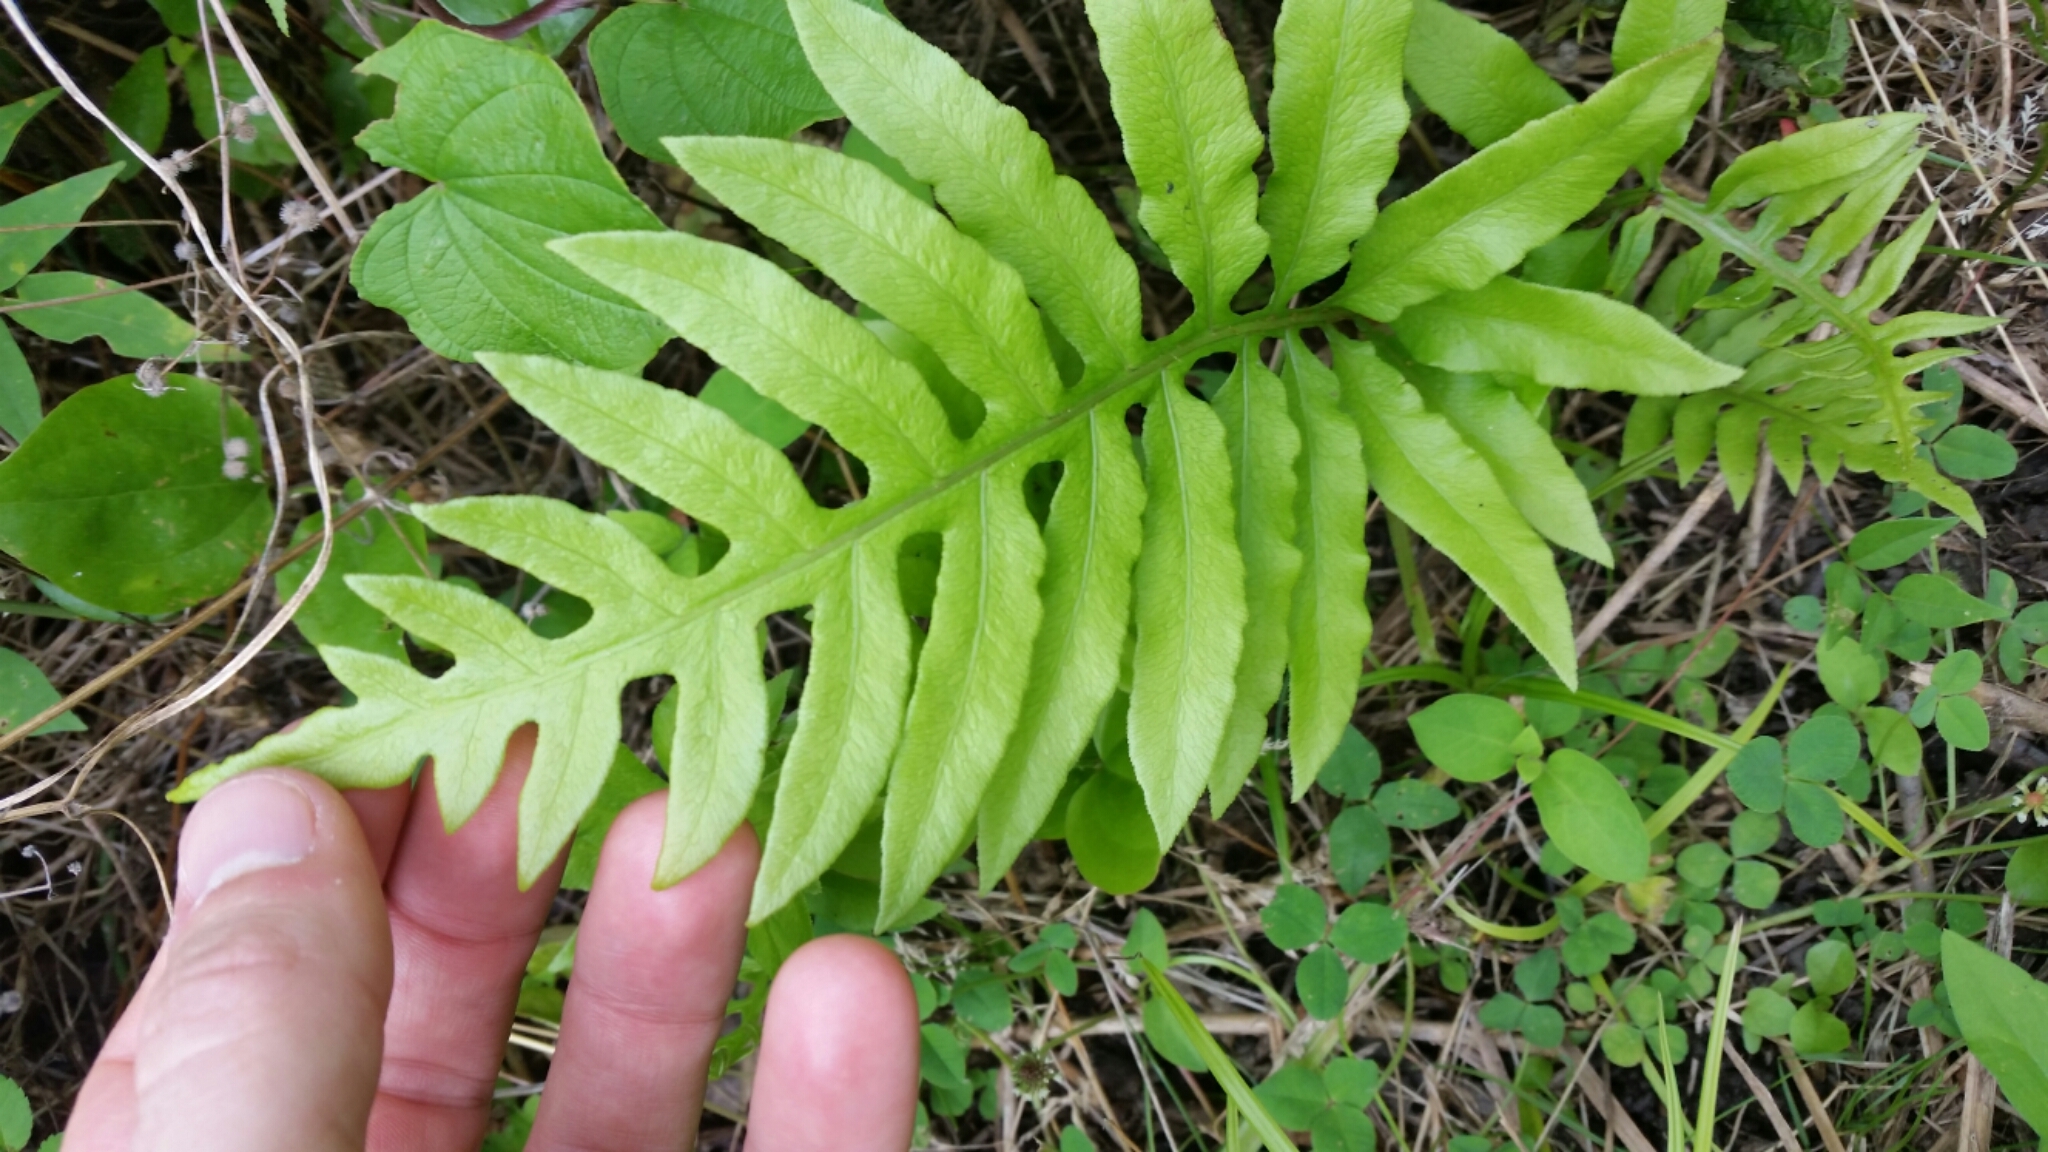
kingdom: Plantae
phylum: Tracheophyta
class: Polypodiopsida
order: Polypodiales
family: Blechnaceae
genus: Lorinseria
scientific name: Lorinseria areolata
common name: Dwarf chain fern
